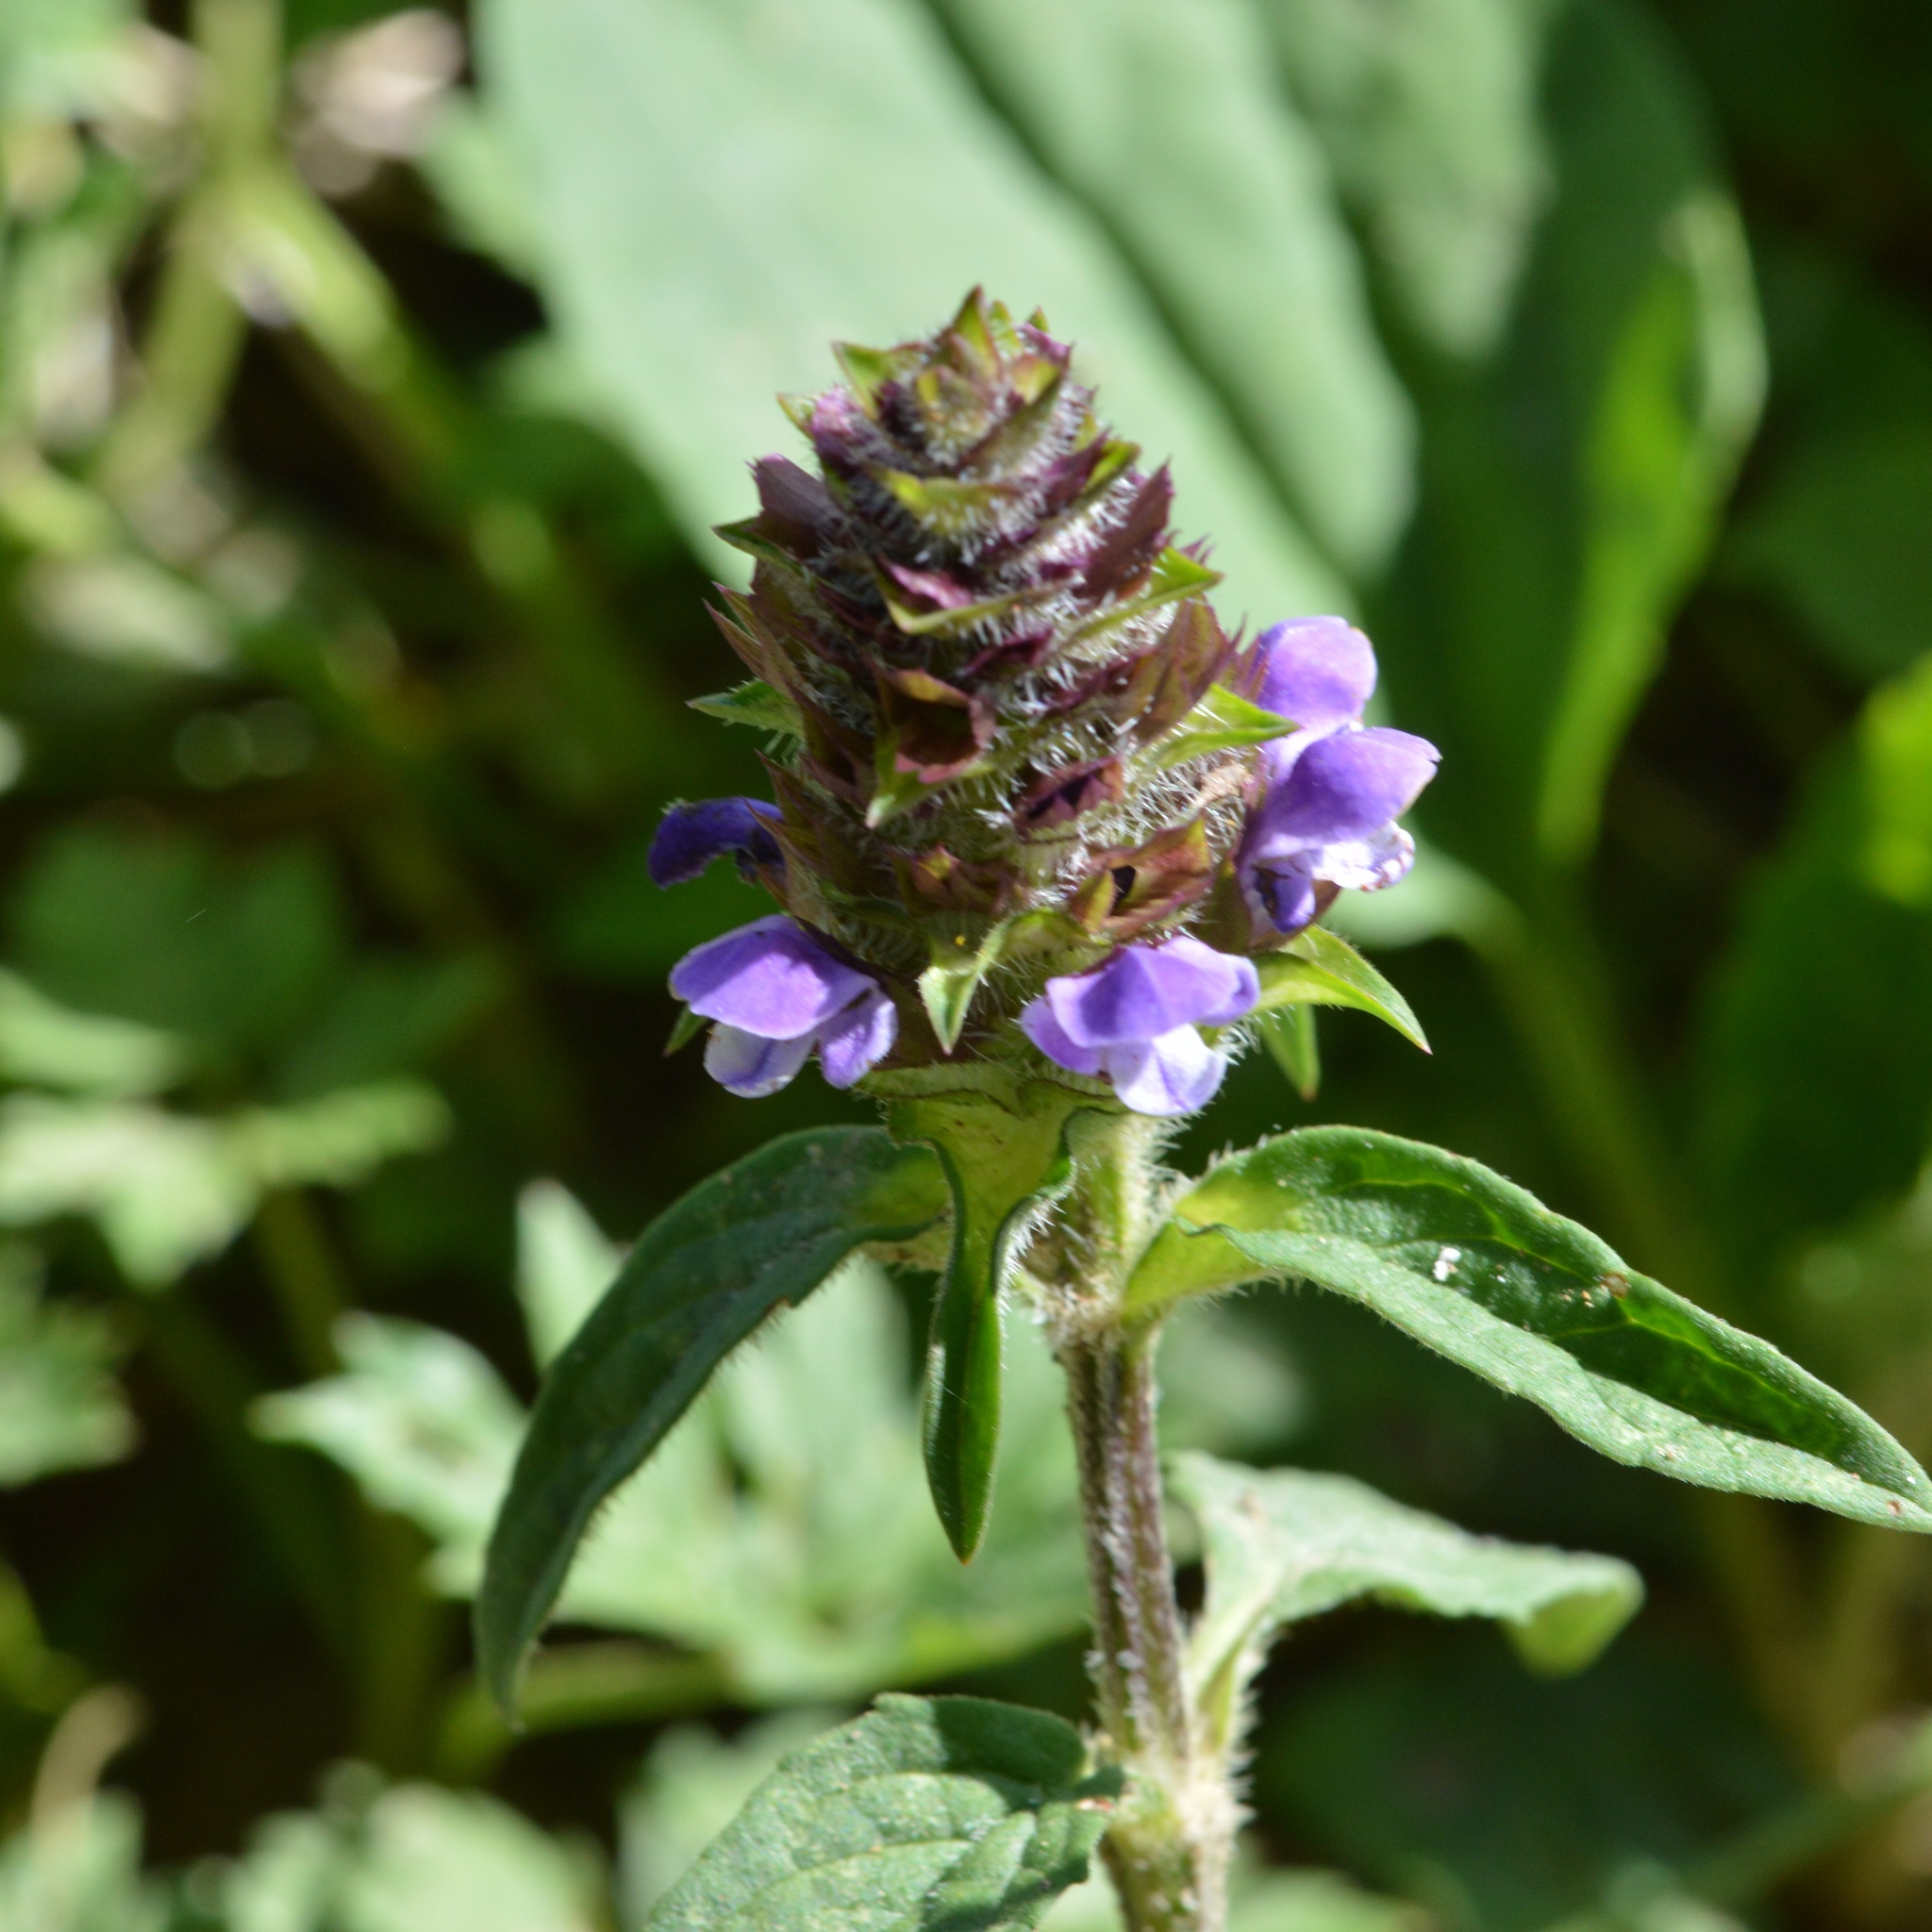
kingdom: Plantae
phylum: Tracheophyta
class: Magnoliopsida
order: Lamiales
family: Lamiaceae
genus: Prunella
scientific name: Prunella vulgaris
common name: Heal-all
